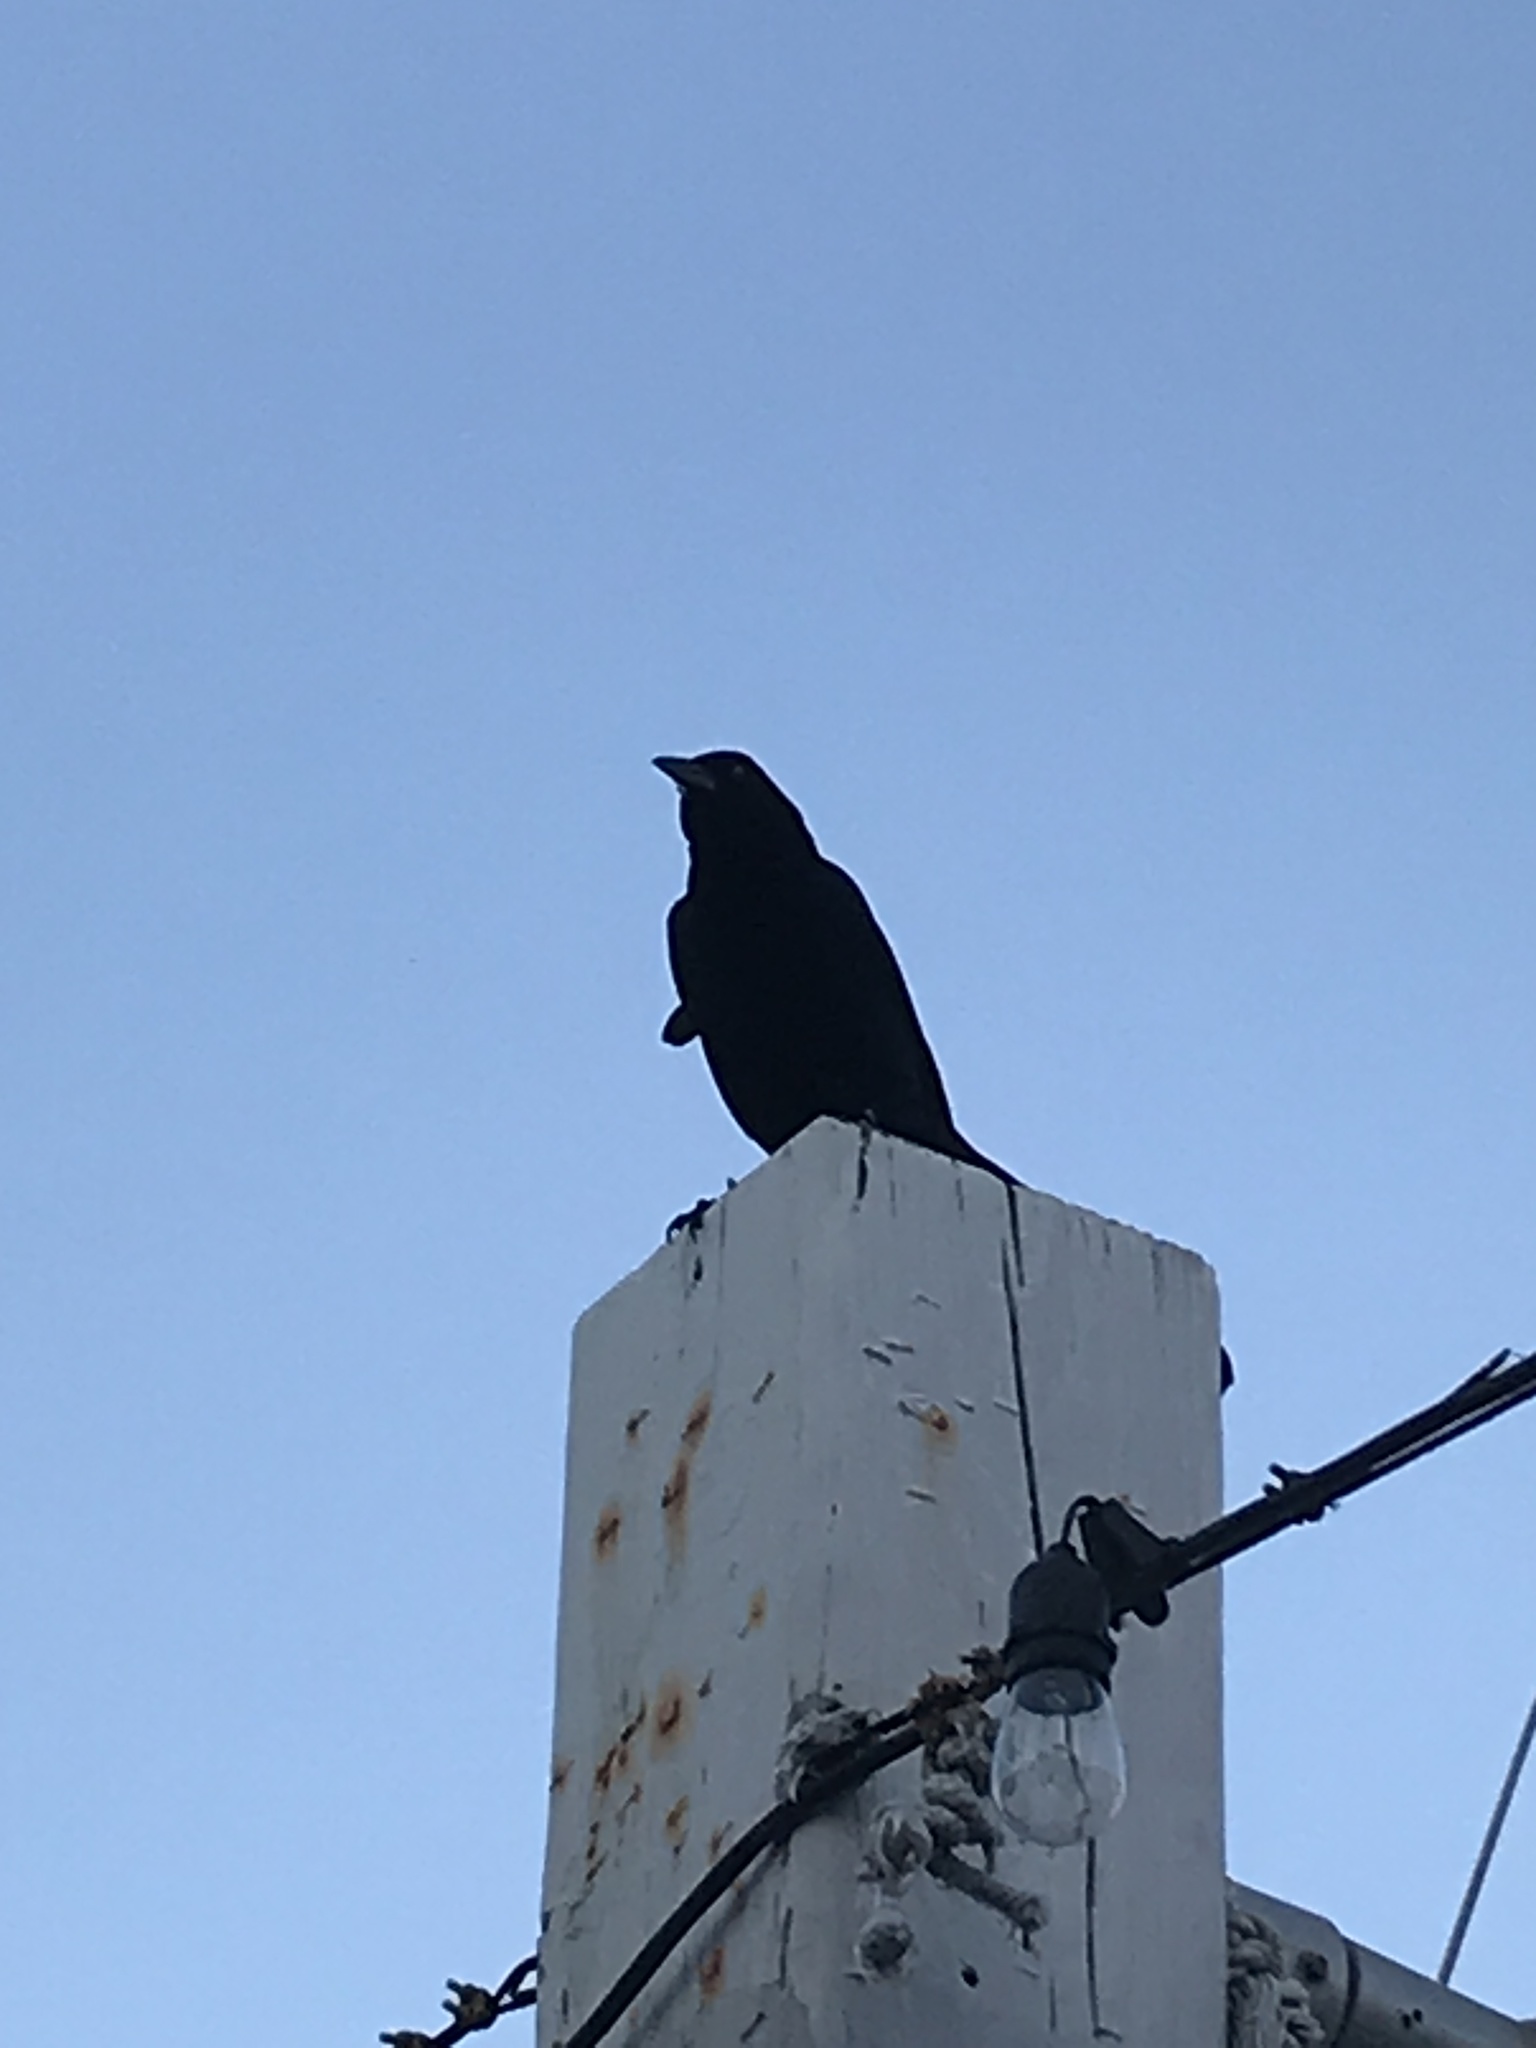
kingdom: Animalia
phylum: Chordata
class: Aves
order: Passeriformes
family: Icteridae
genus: Quiscalus
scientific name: Quiscalus major
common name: Boat-tailed grackle
